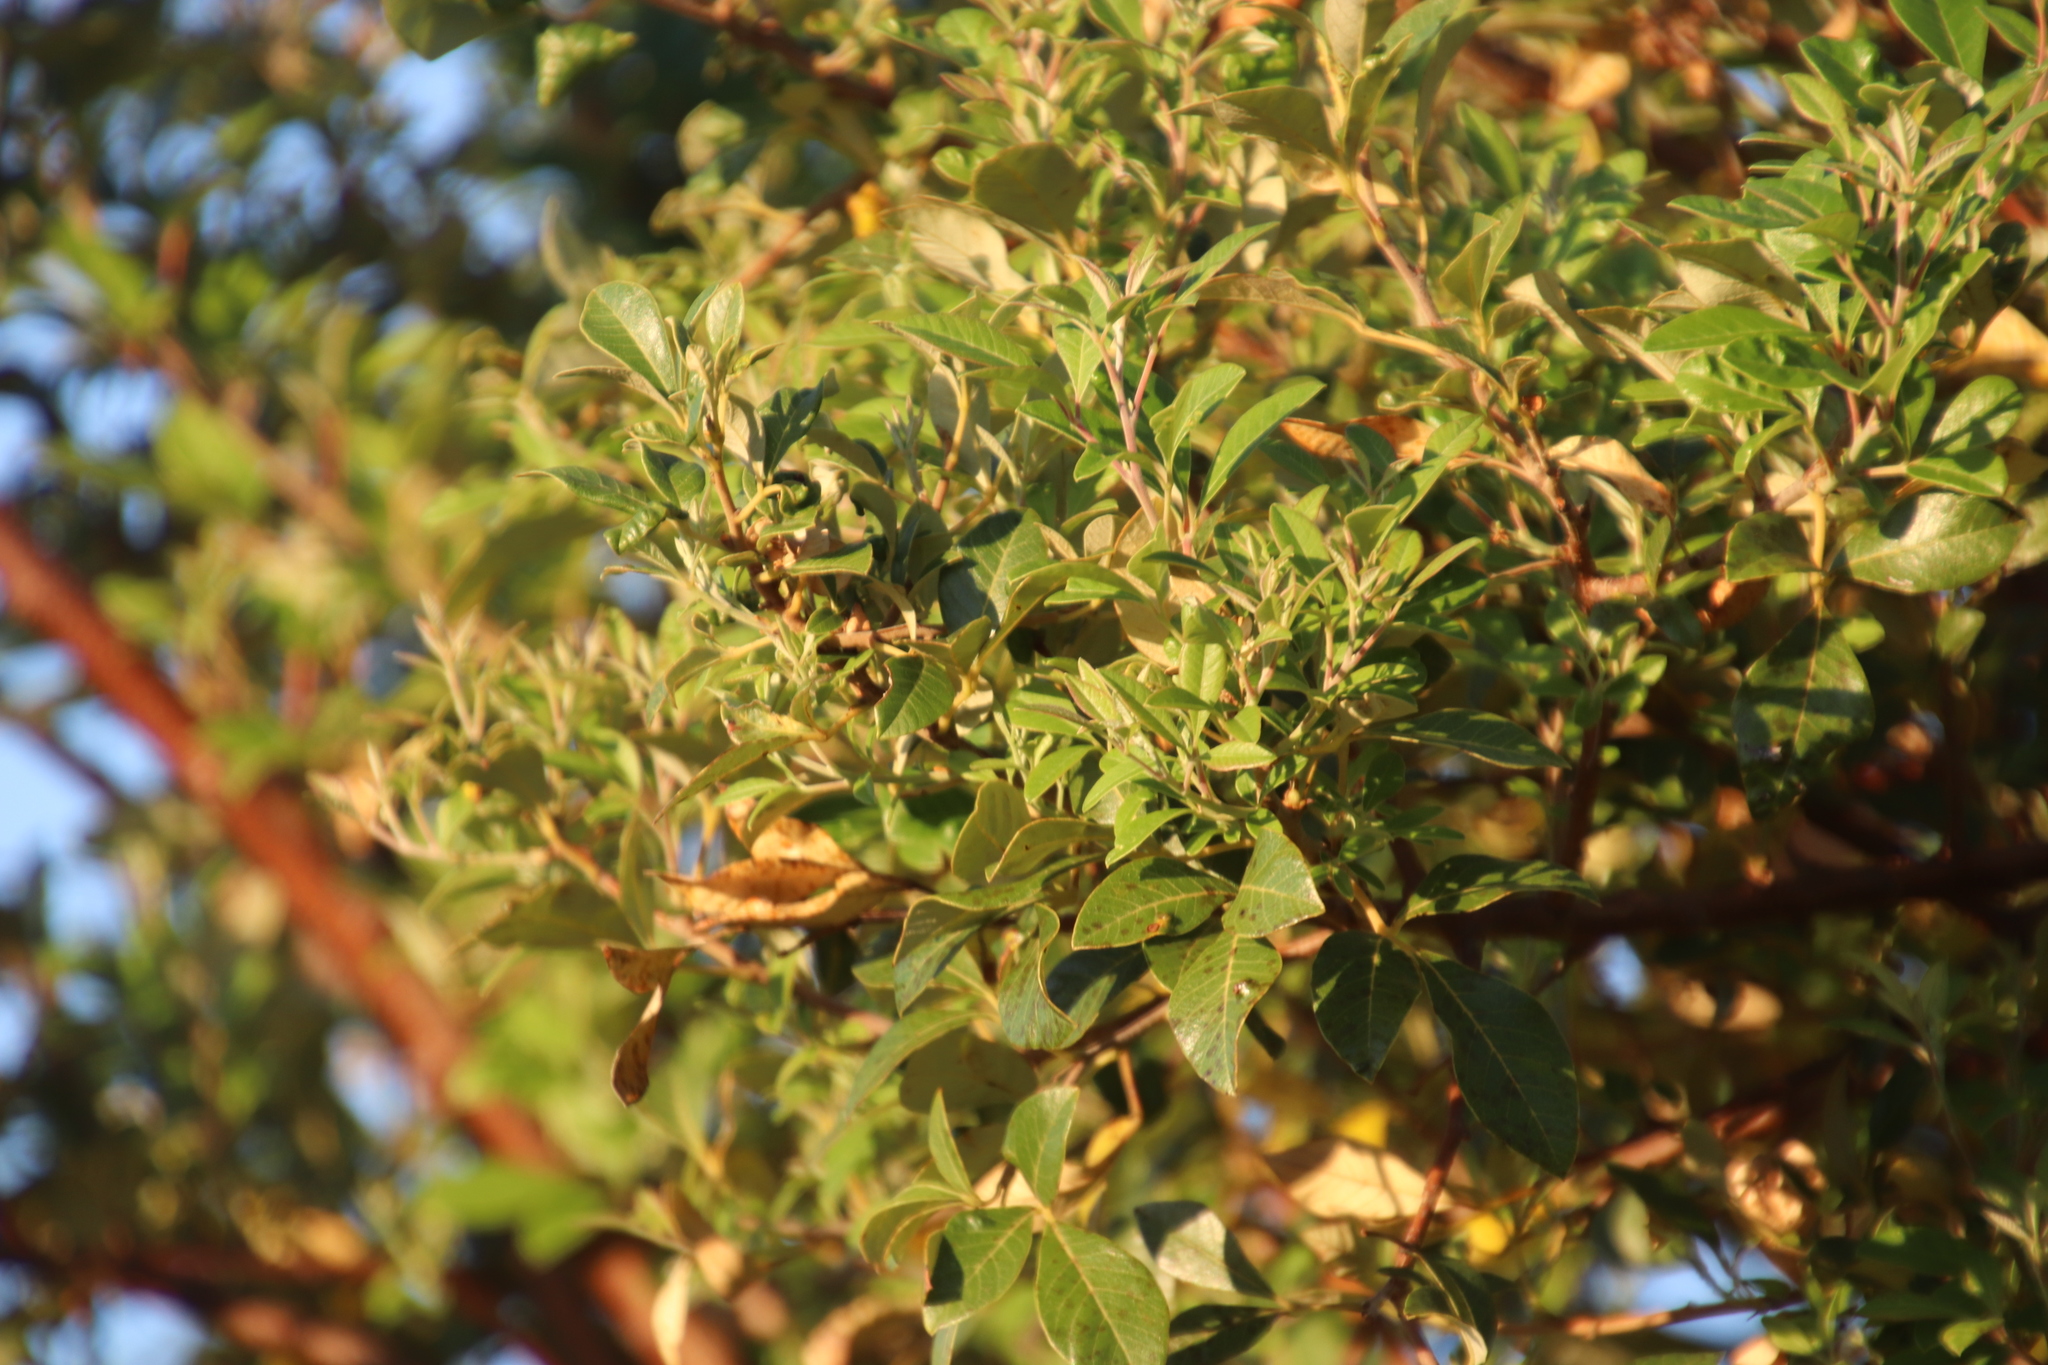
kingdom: Plantae
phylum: Tracheophyta
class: Magnoliopsida
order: Sapindales
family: Anacardiaceae
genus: Searsia
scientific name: Searsia tomentosa
